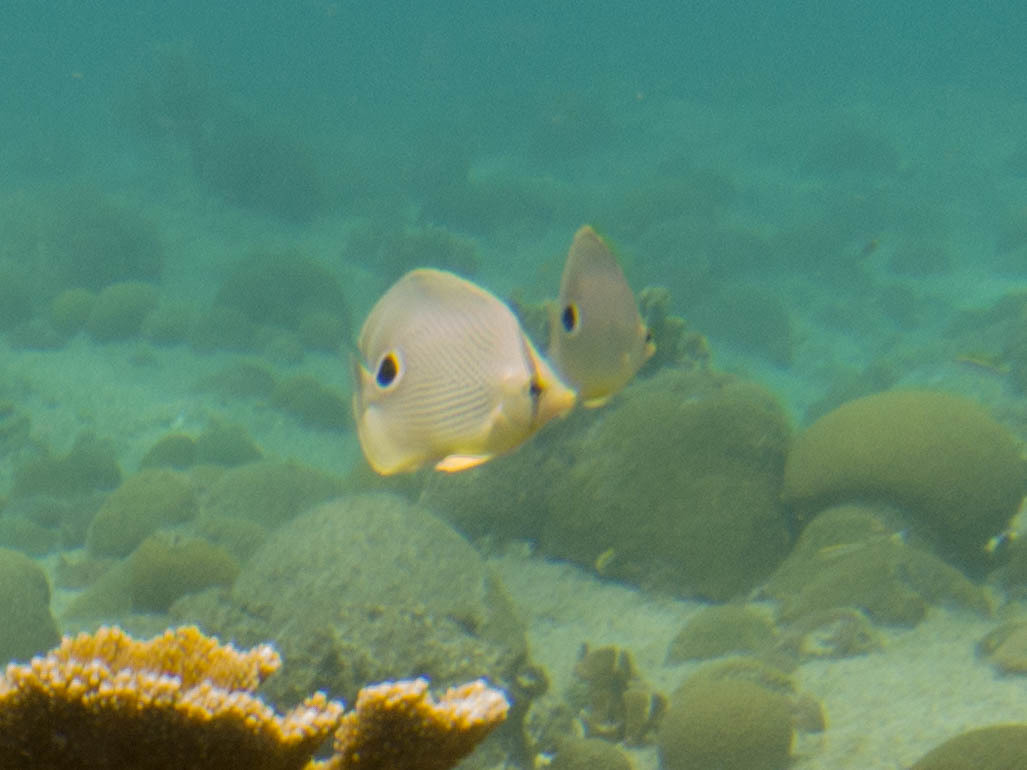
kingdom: Animalia
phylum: Chordata
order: Perciformes
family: Chaetodontidae
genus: Chaetodon
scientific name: Chaetodon capistratus
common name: Kete
